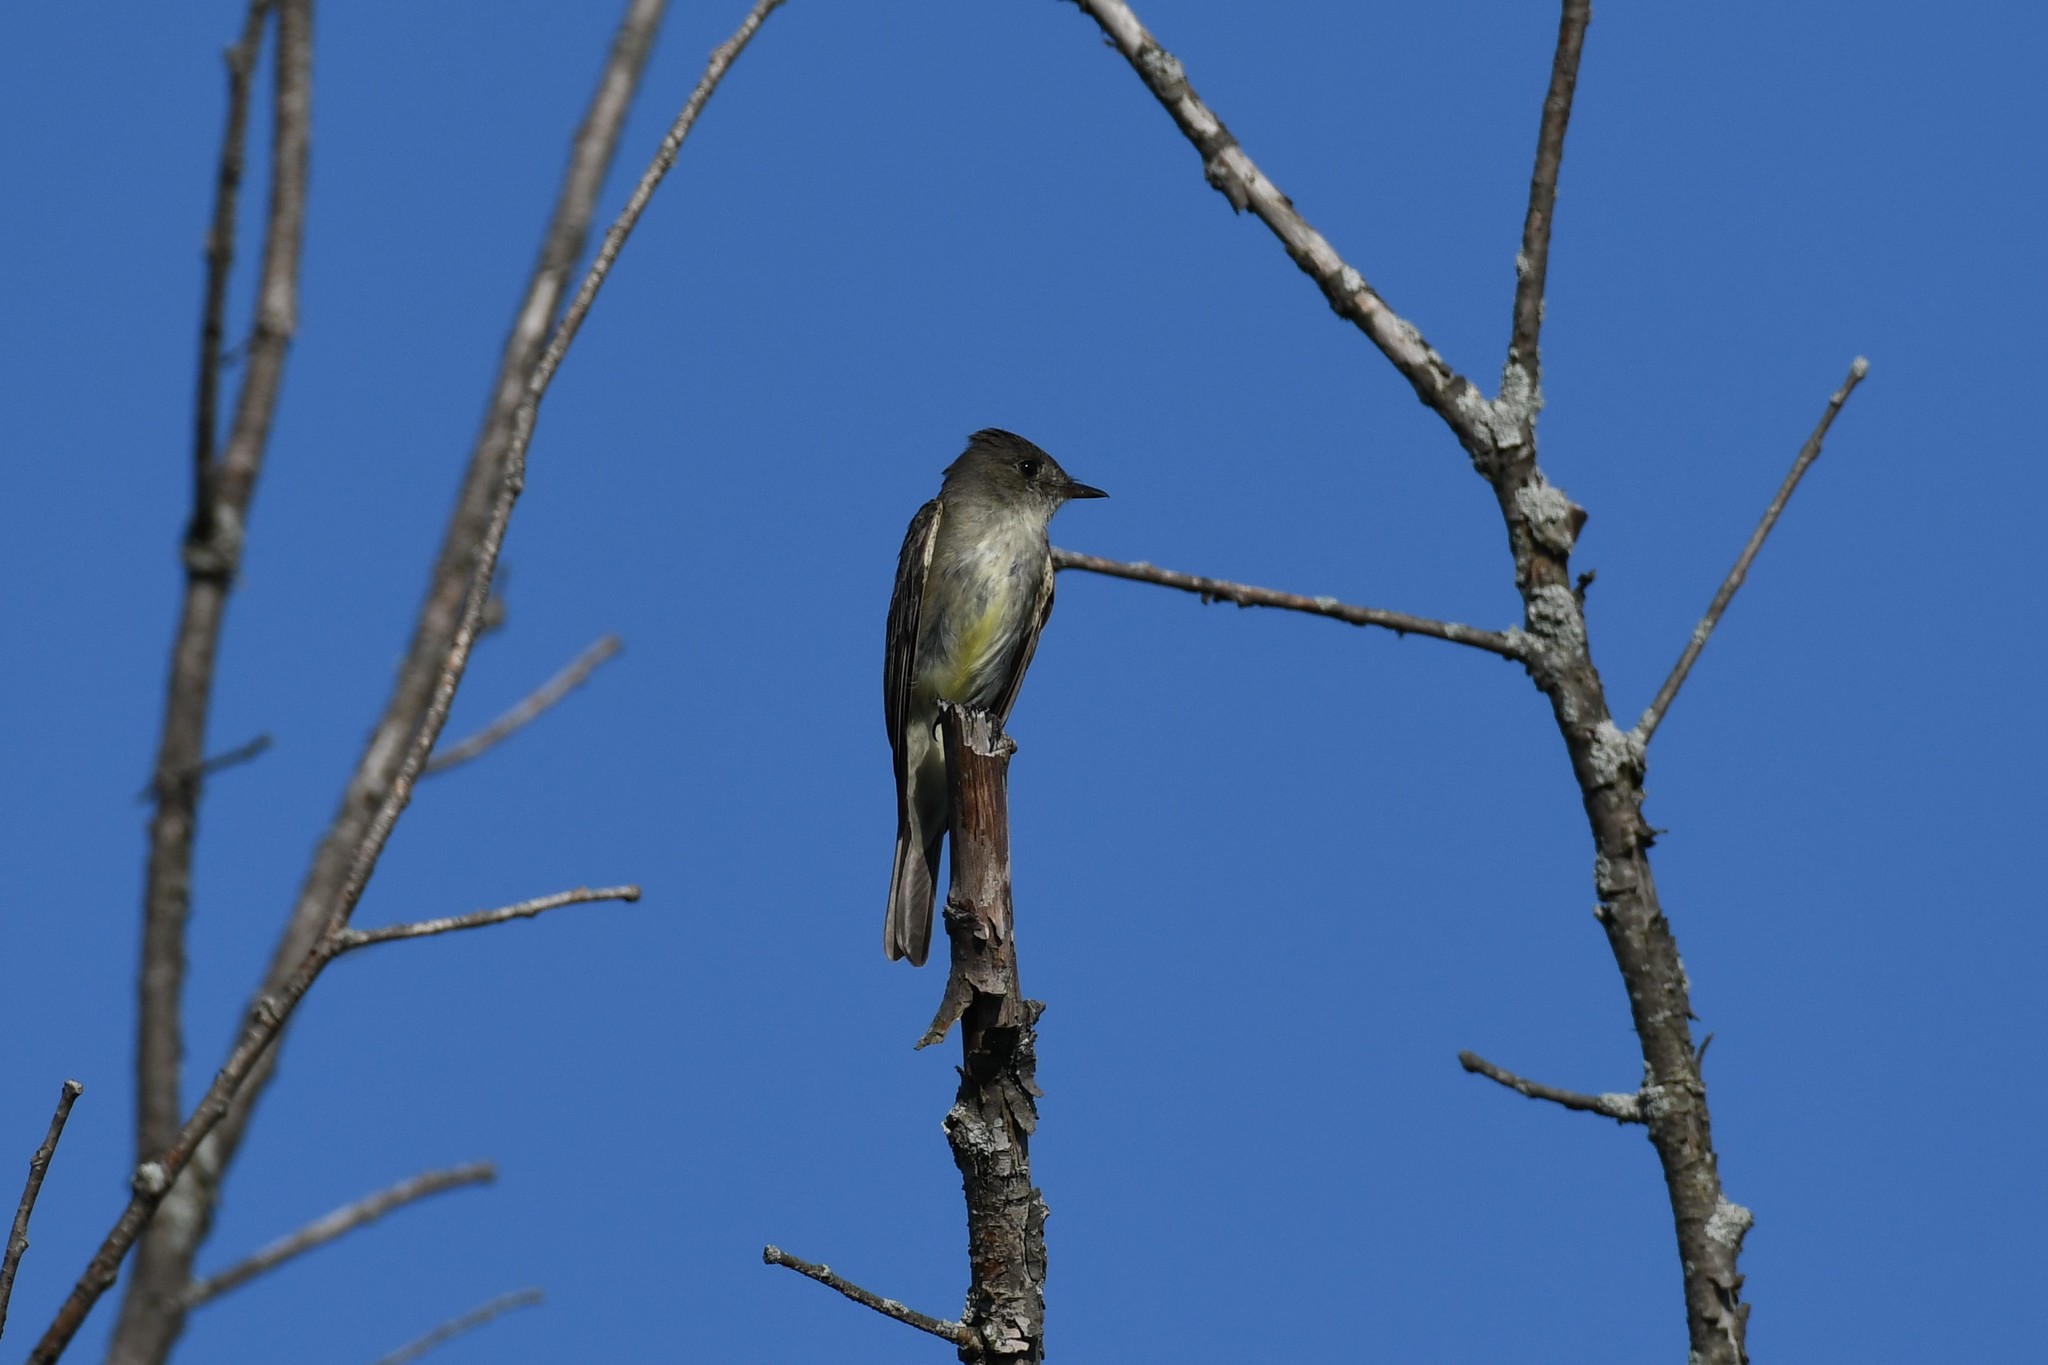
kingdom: Animalia
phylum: Chordata
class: Aves
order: Passeriformes
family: Tyrannidae
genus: Contopus
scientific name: Contopus virens
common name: Eastern wood-pewee
